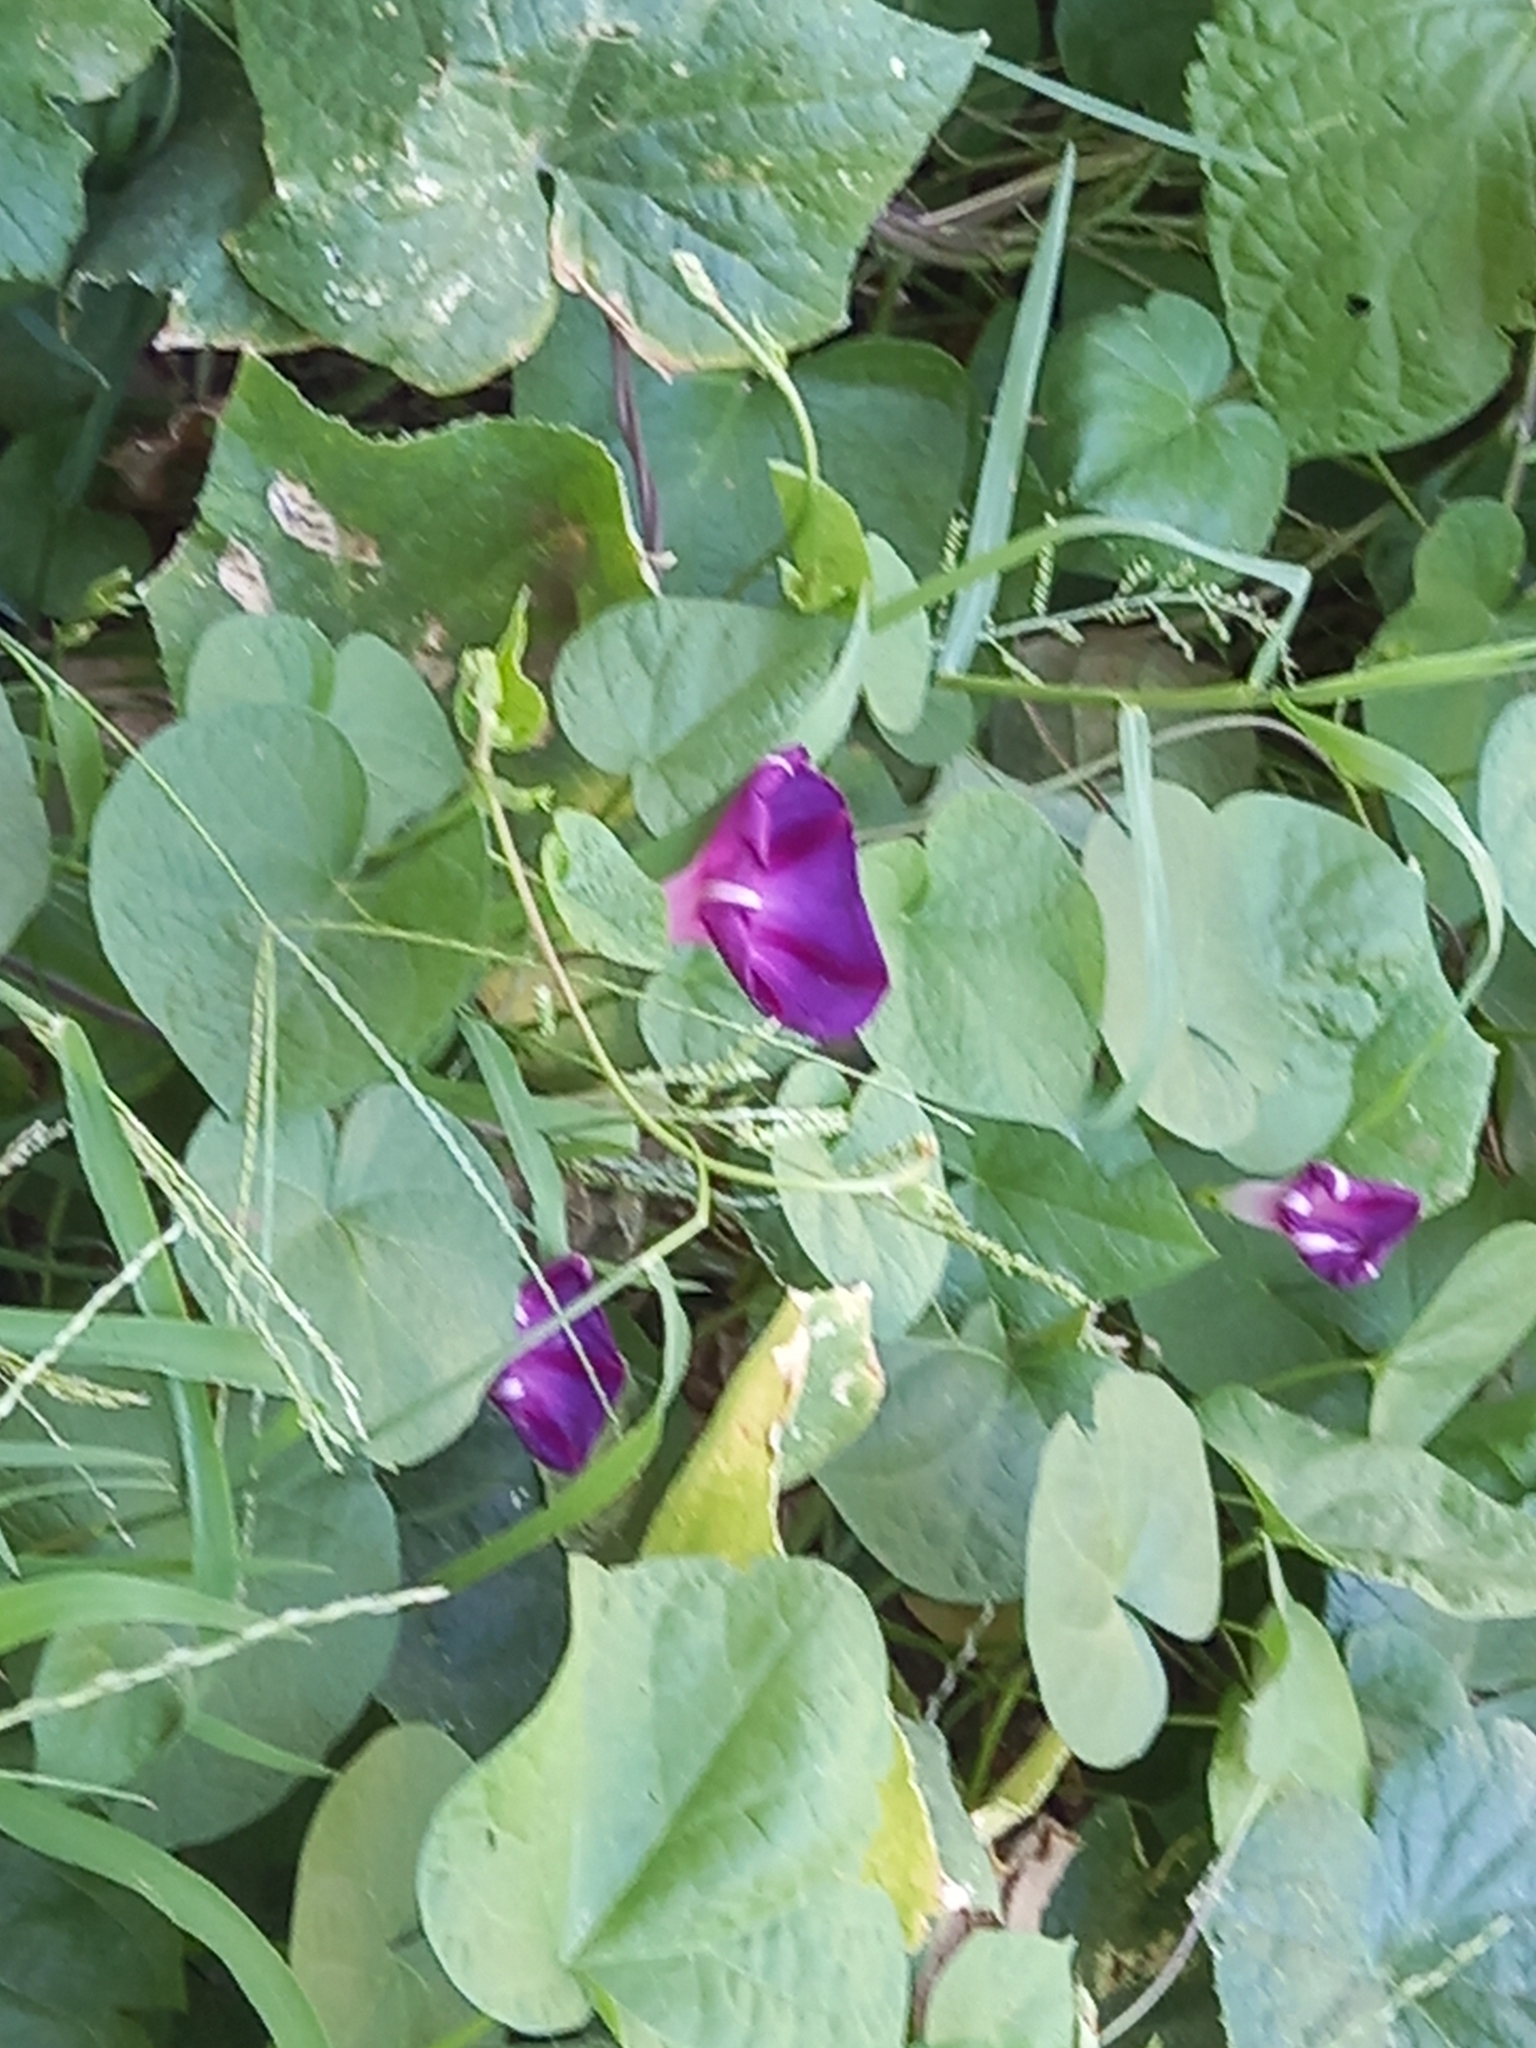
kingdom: Plantae
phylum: Tracheophyta
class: Magnoliopsida
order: Solanales
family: Convolvulaceae
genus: Ipomoea
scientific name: Ipomoea purpurea
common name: Common morning-glory
